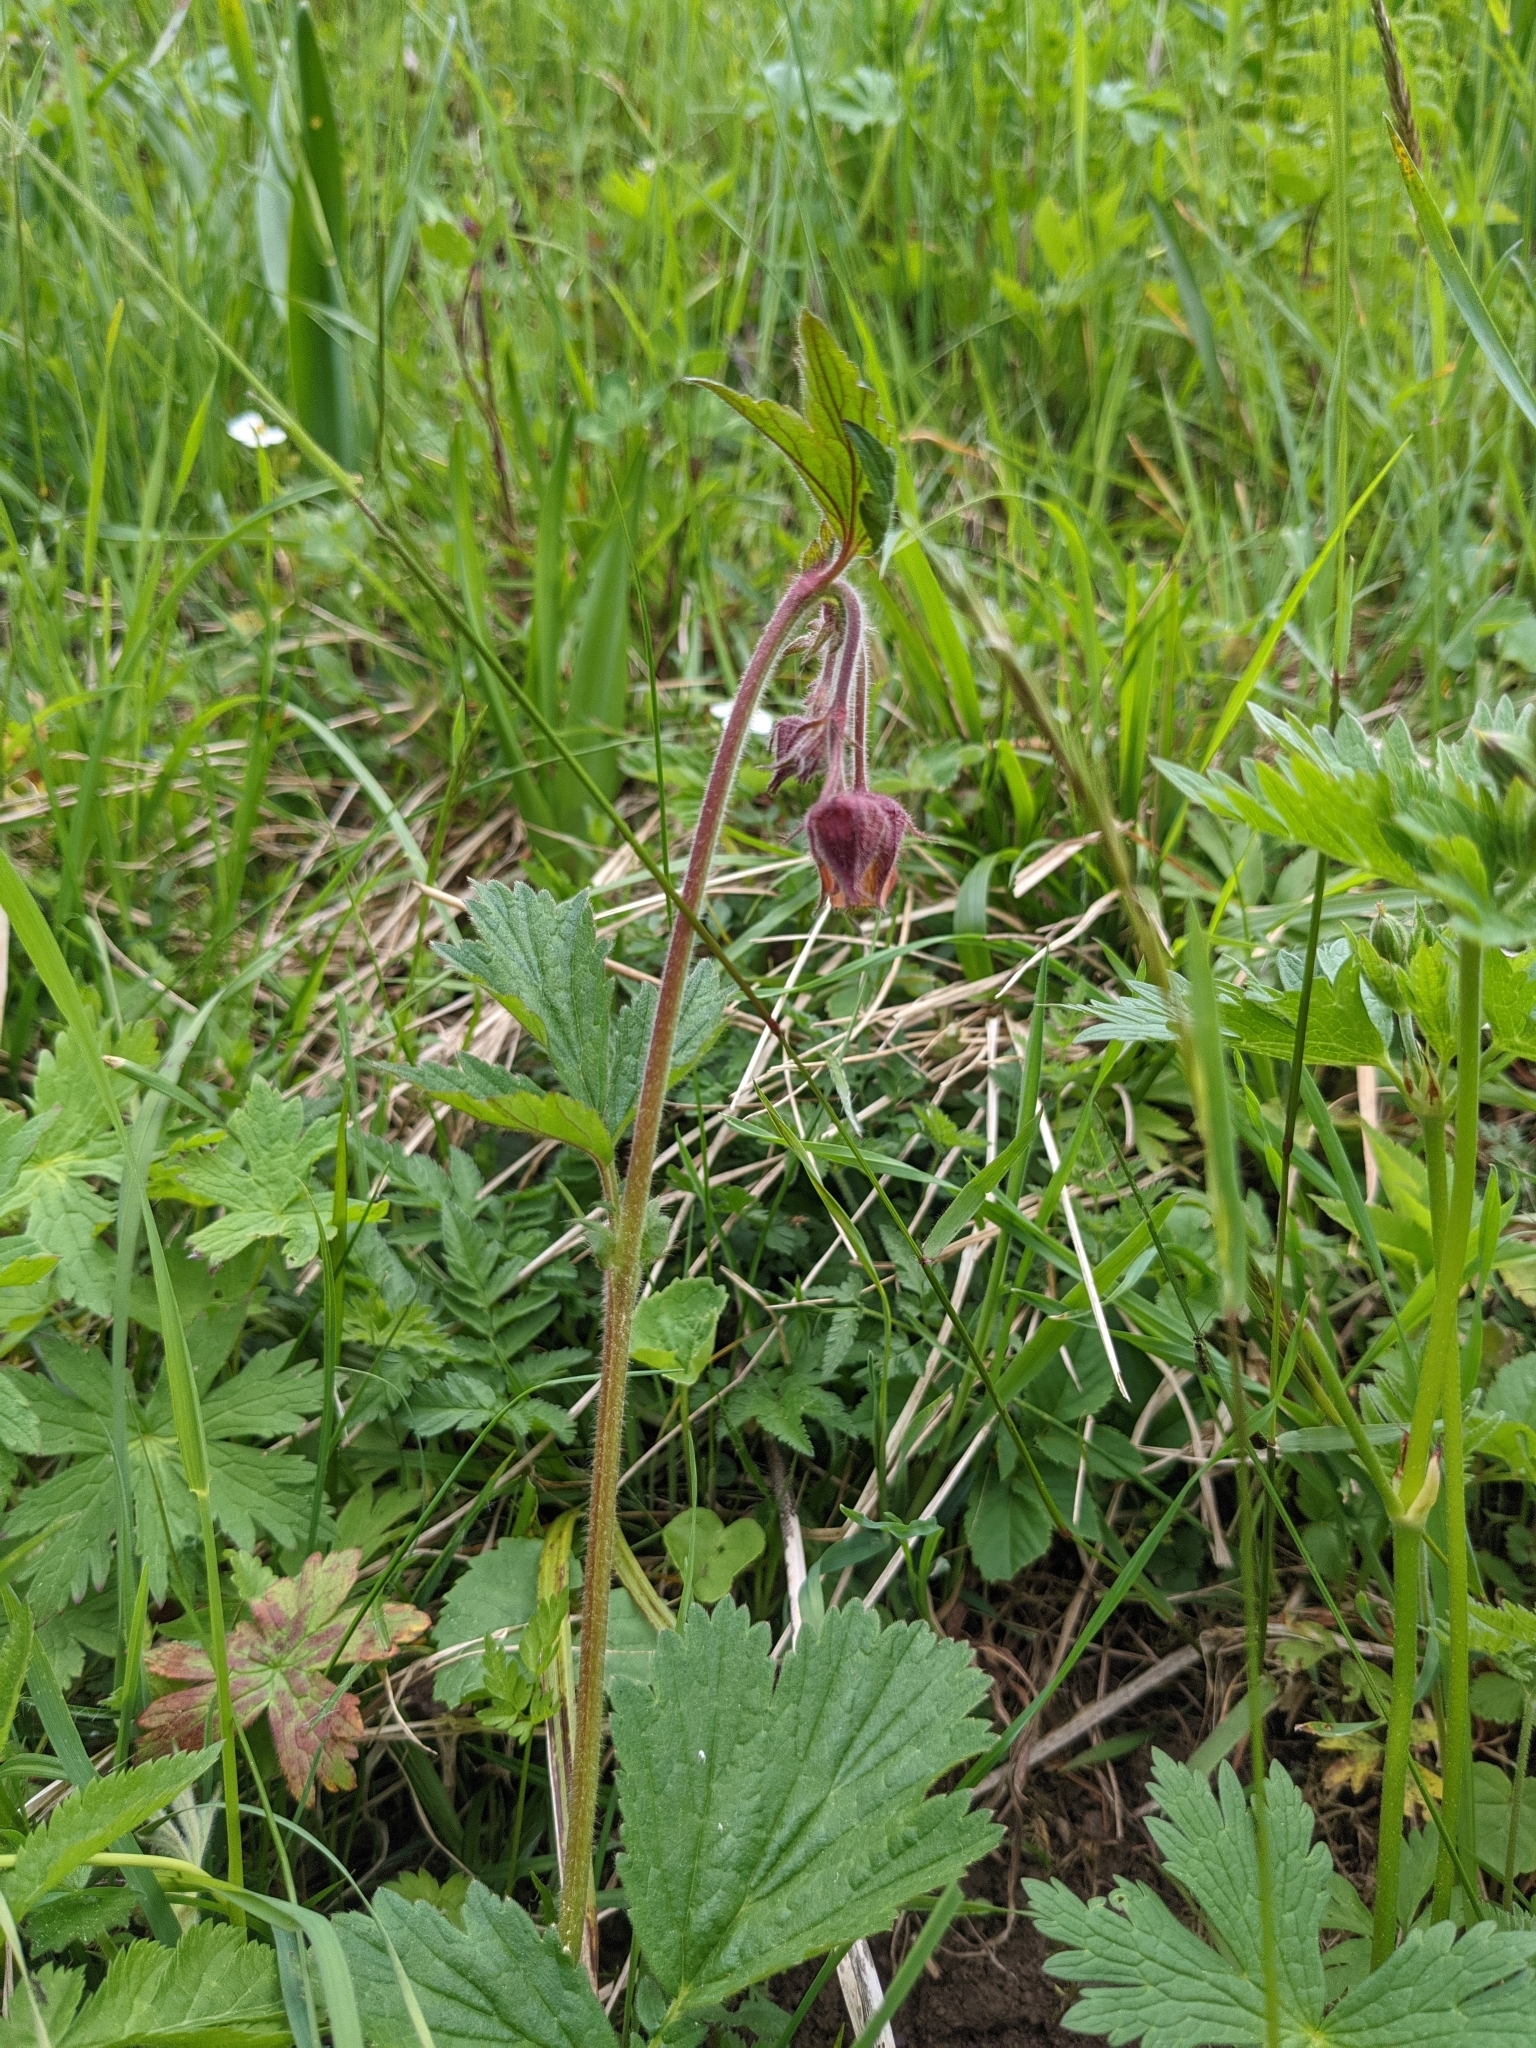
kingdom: Plantae
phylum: Tracheophyta
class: Magnoliopsida
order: Rosales
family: Rosaceae
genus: Geum
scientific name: Geum rivale
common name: Water avens
